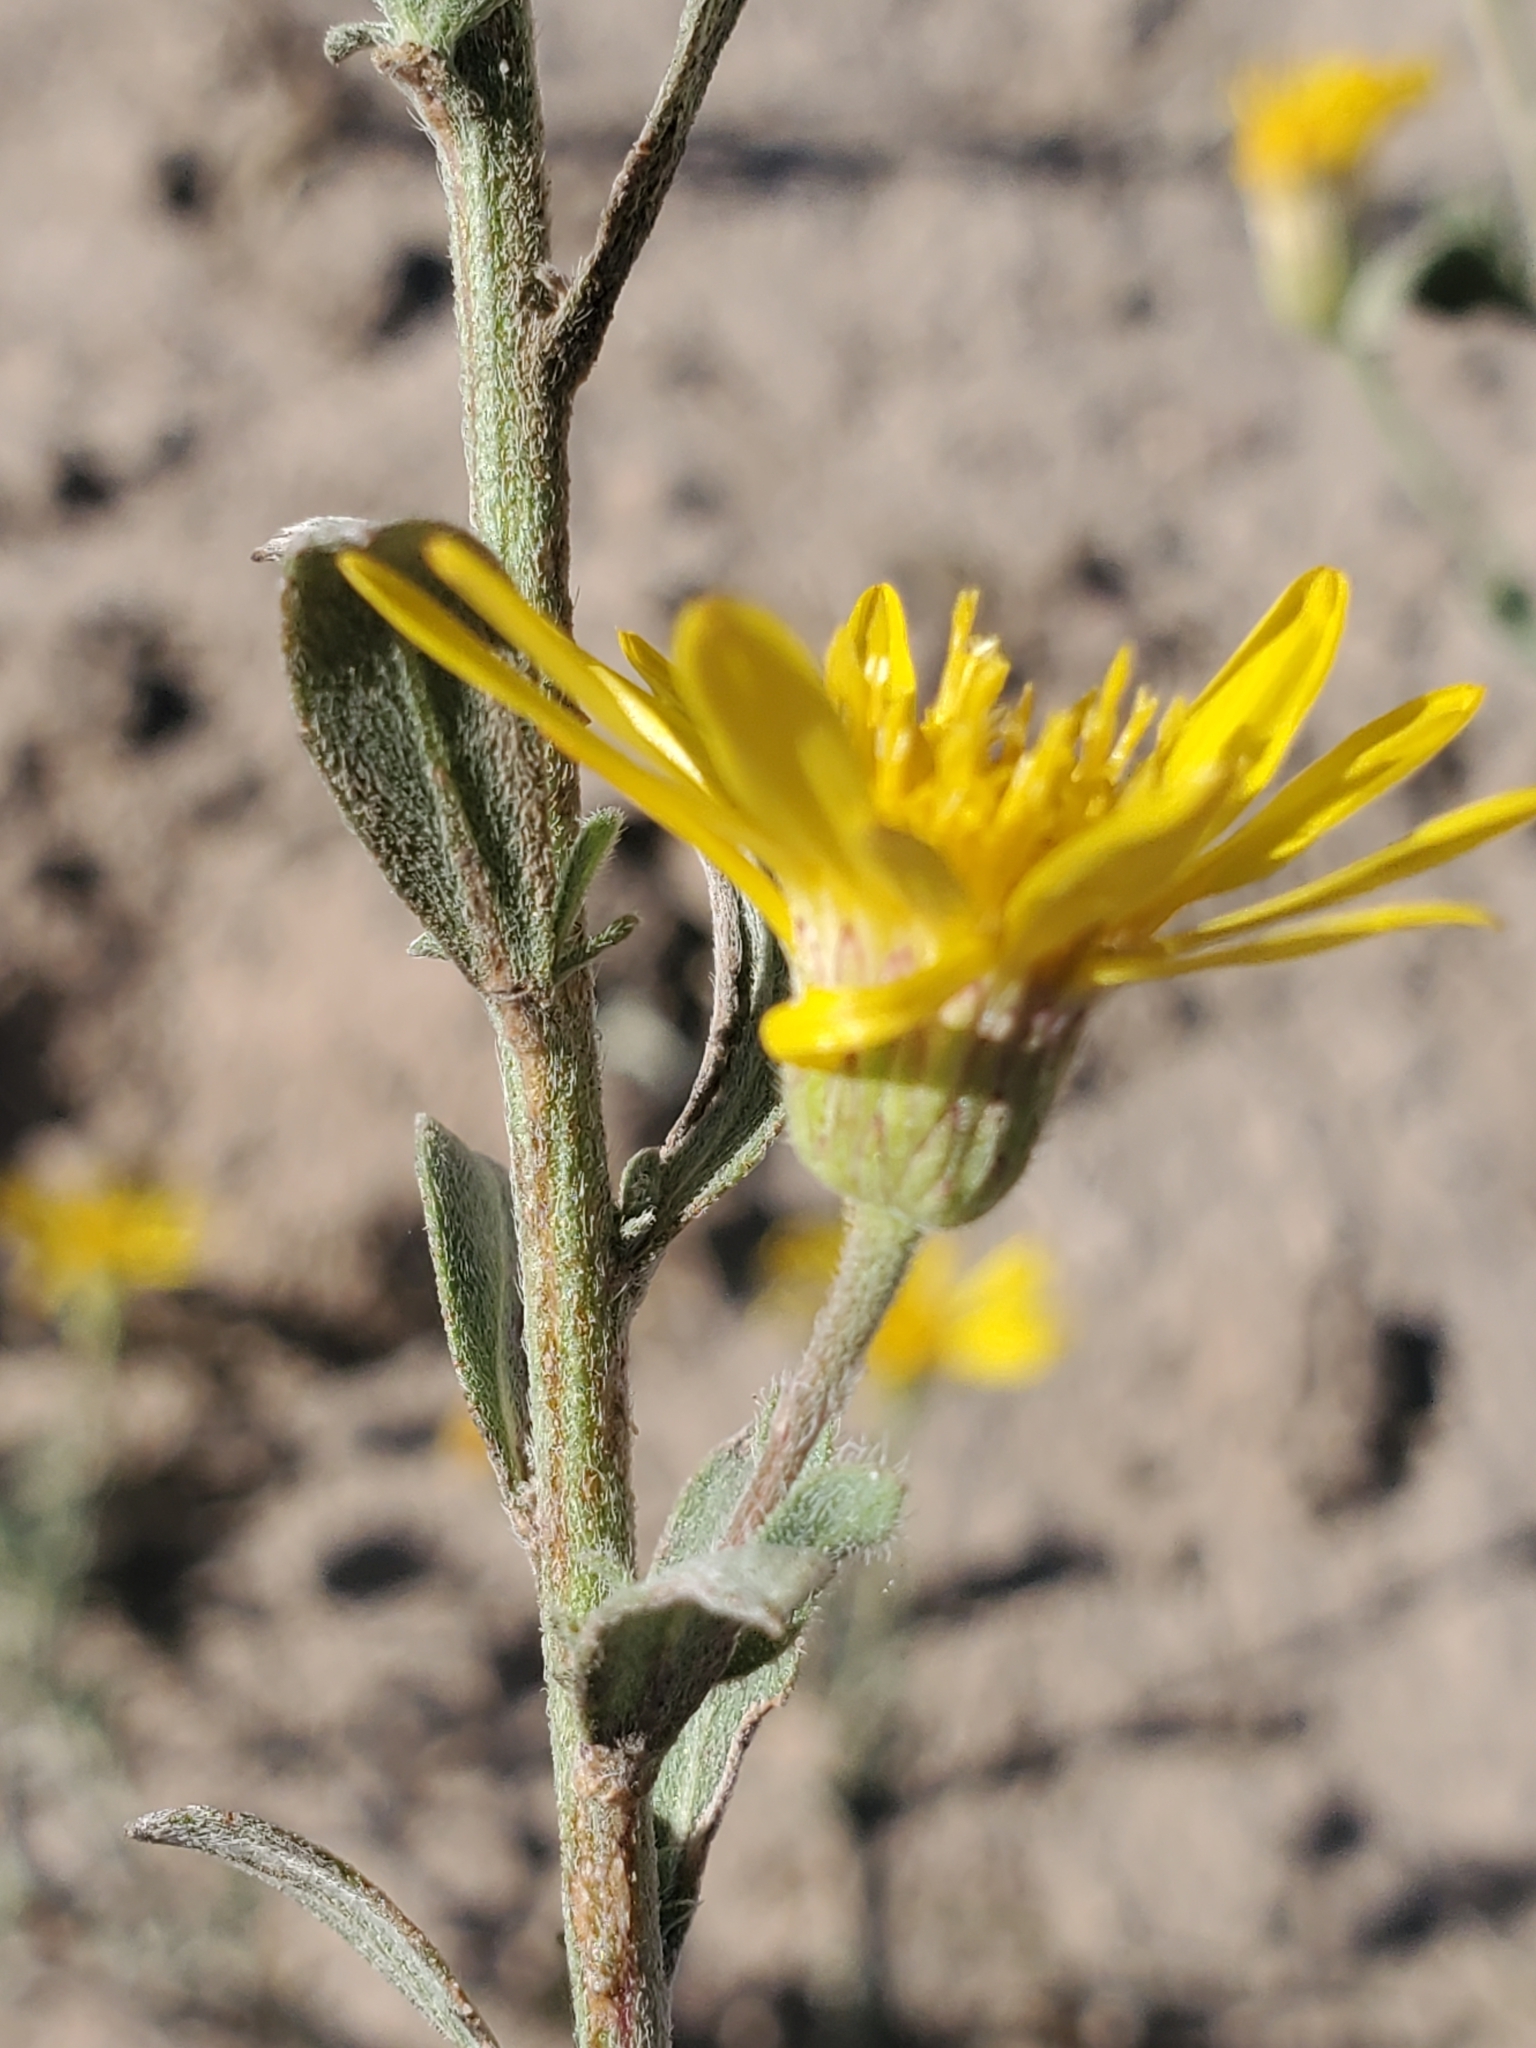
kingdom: Plantae
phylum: Tracheophyta
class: Magnoliopsida
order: Asterales
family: Asteraceae
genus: Heterotheca
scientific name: Heterotheca zionensis
